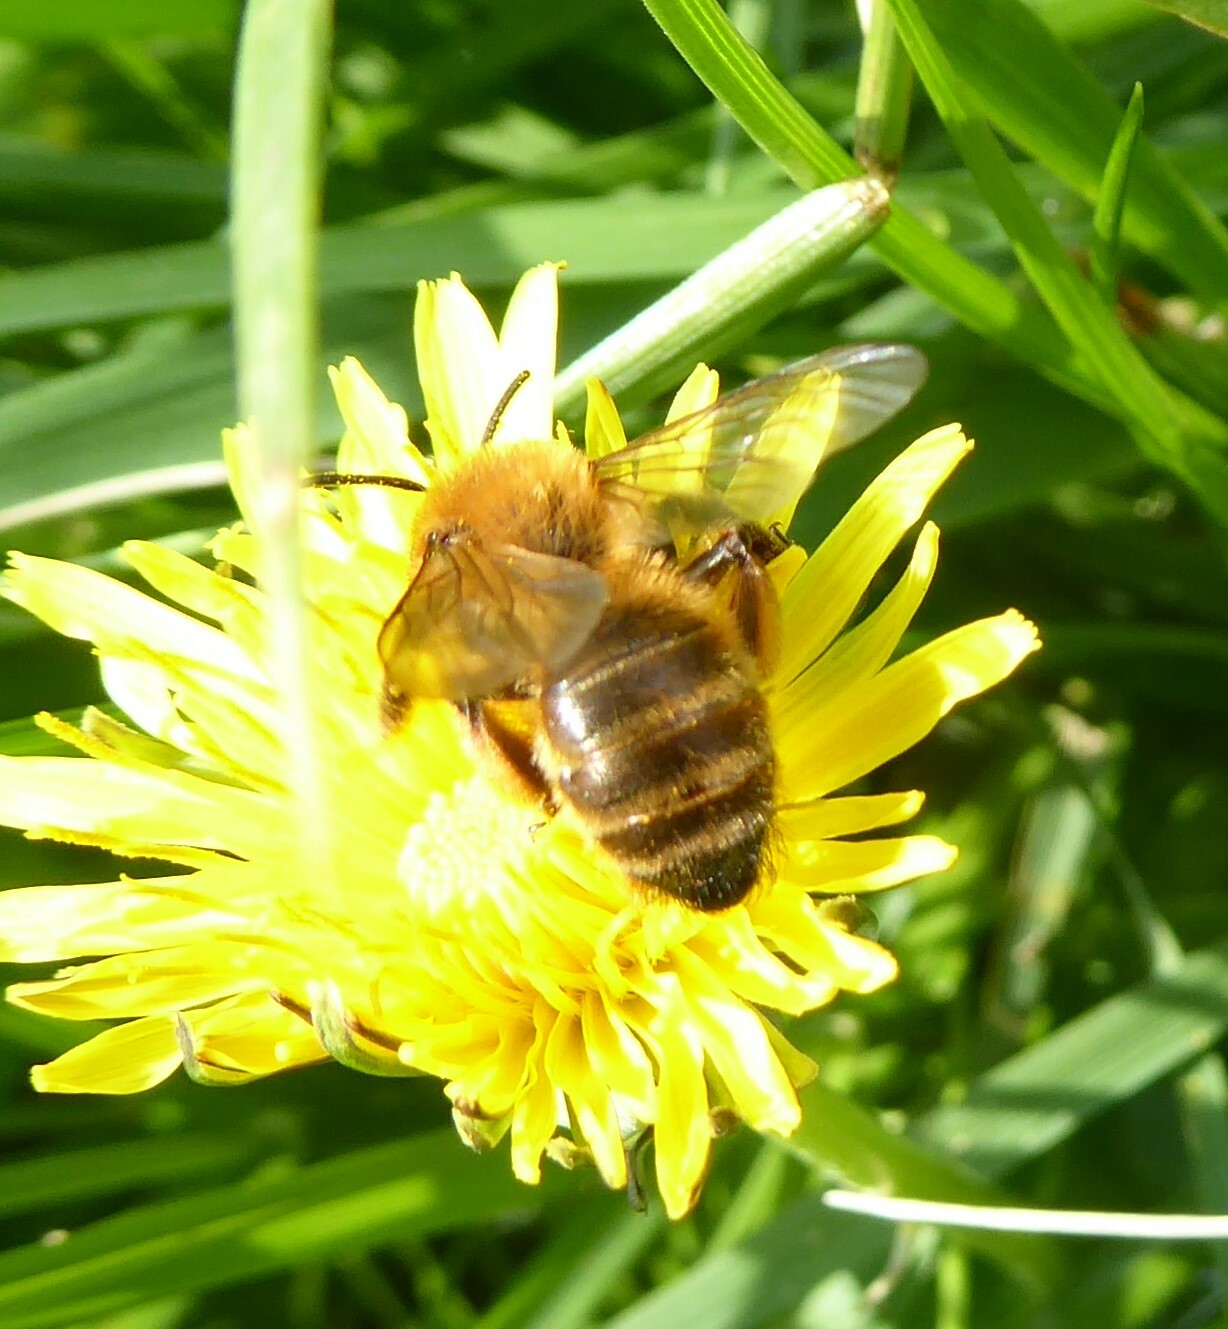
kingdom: Animalia
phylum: Arthropoda
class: Insecta
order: Hymenoptera
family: Andrenidae
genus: Andrena
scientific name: Andrena nigroaenea
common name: Buffish mining bee
